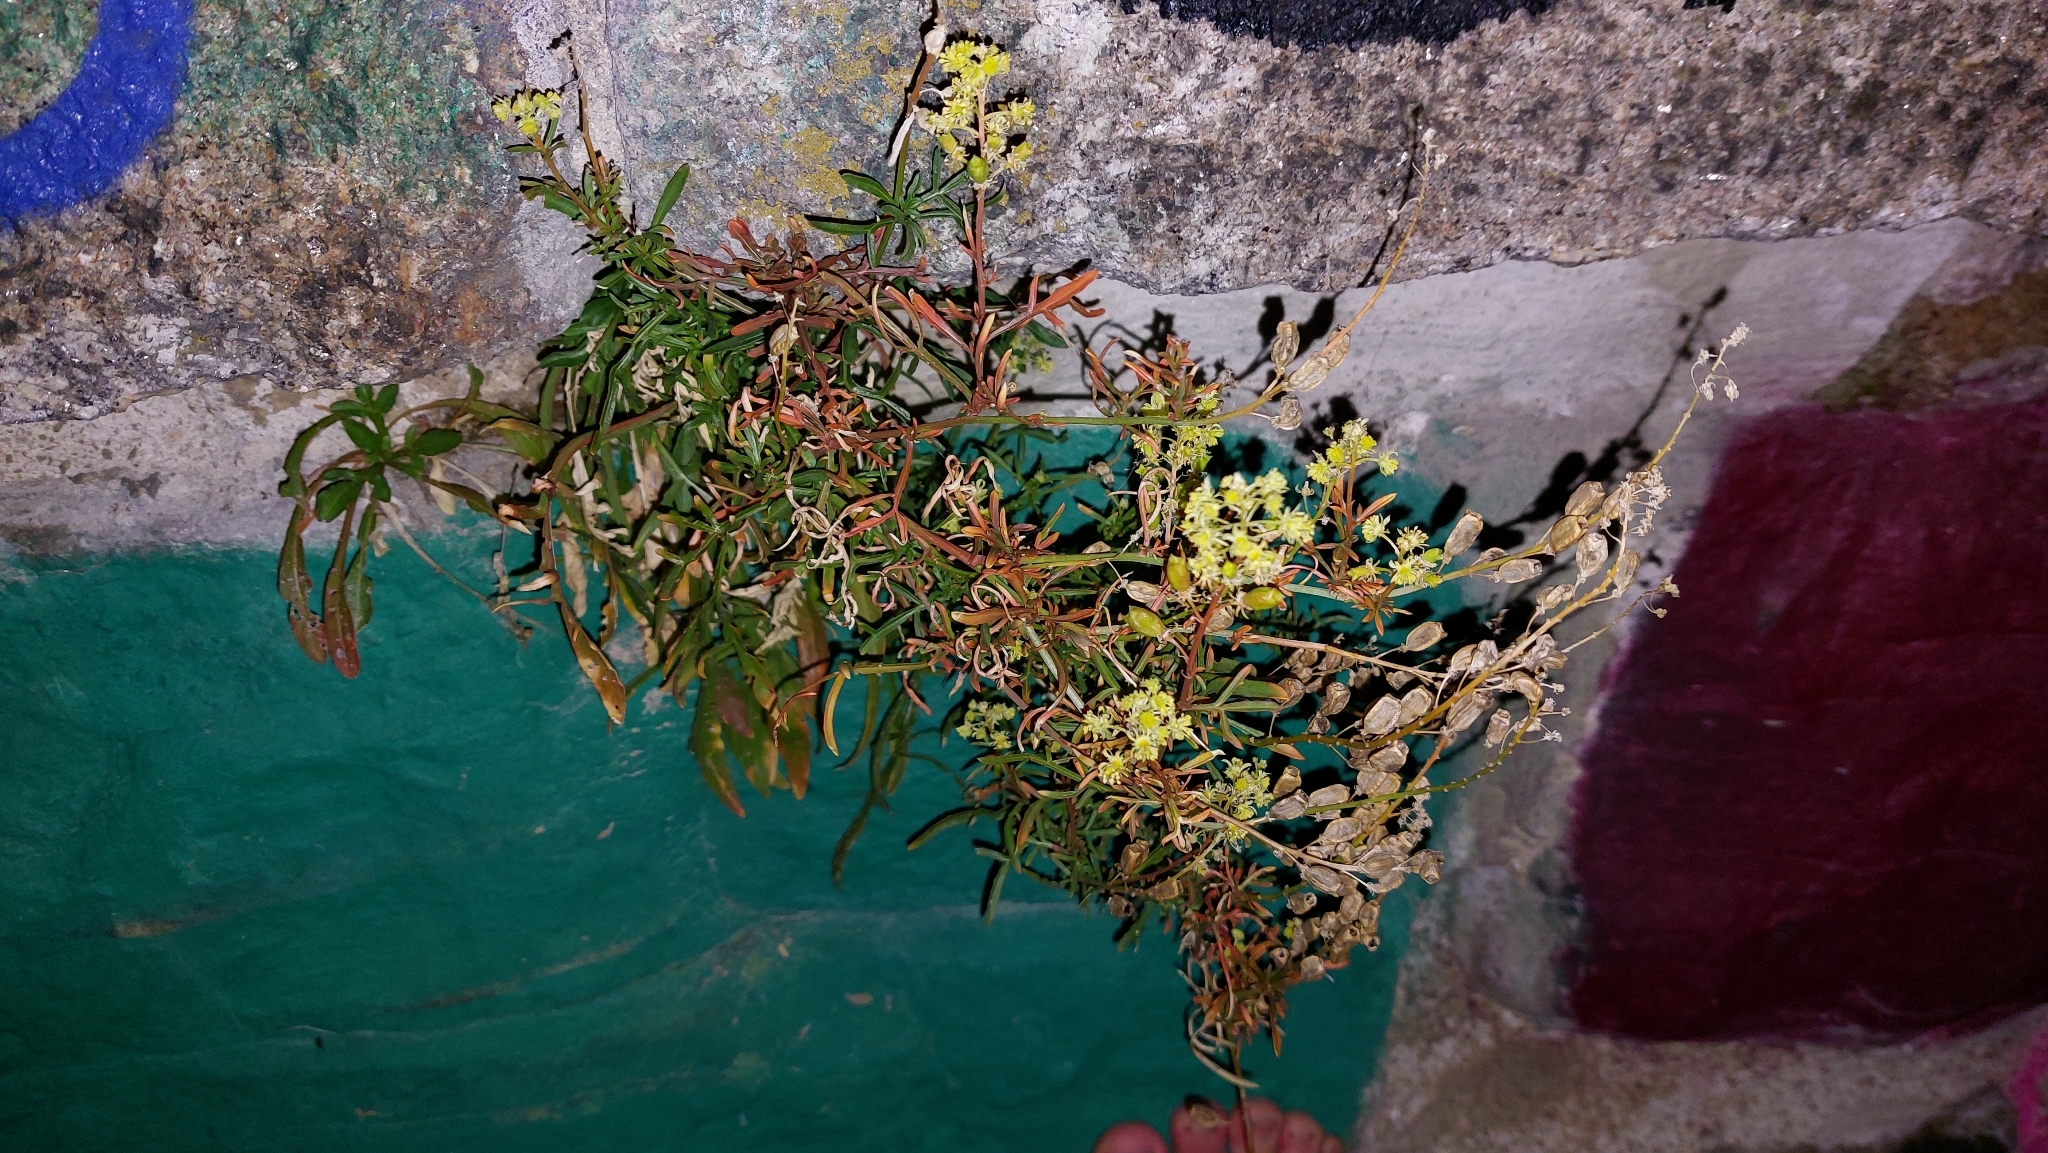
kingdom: Plantae
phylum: Tracheophyta
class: Magnoliopsida
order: Brassicales
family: Resedaceae
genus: Reseda
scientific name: Reseda lutea
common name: Wild mignonette
